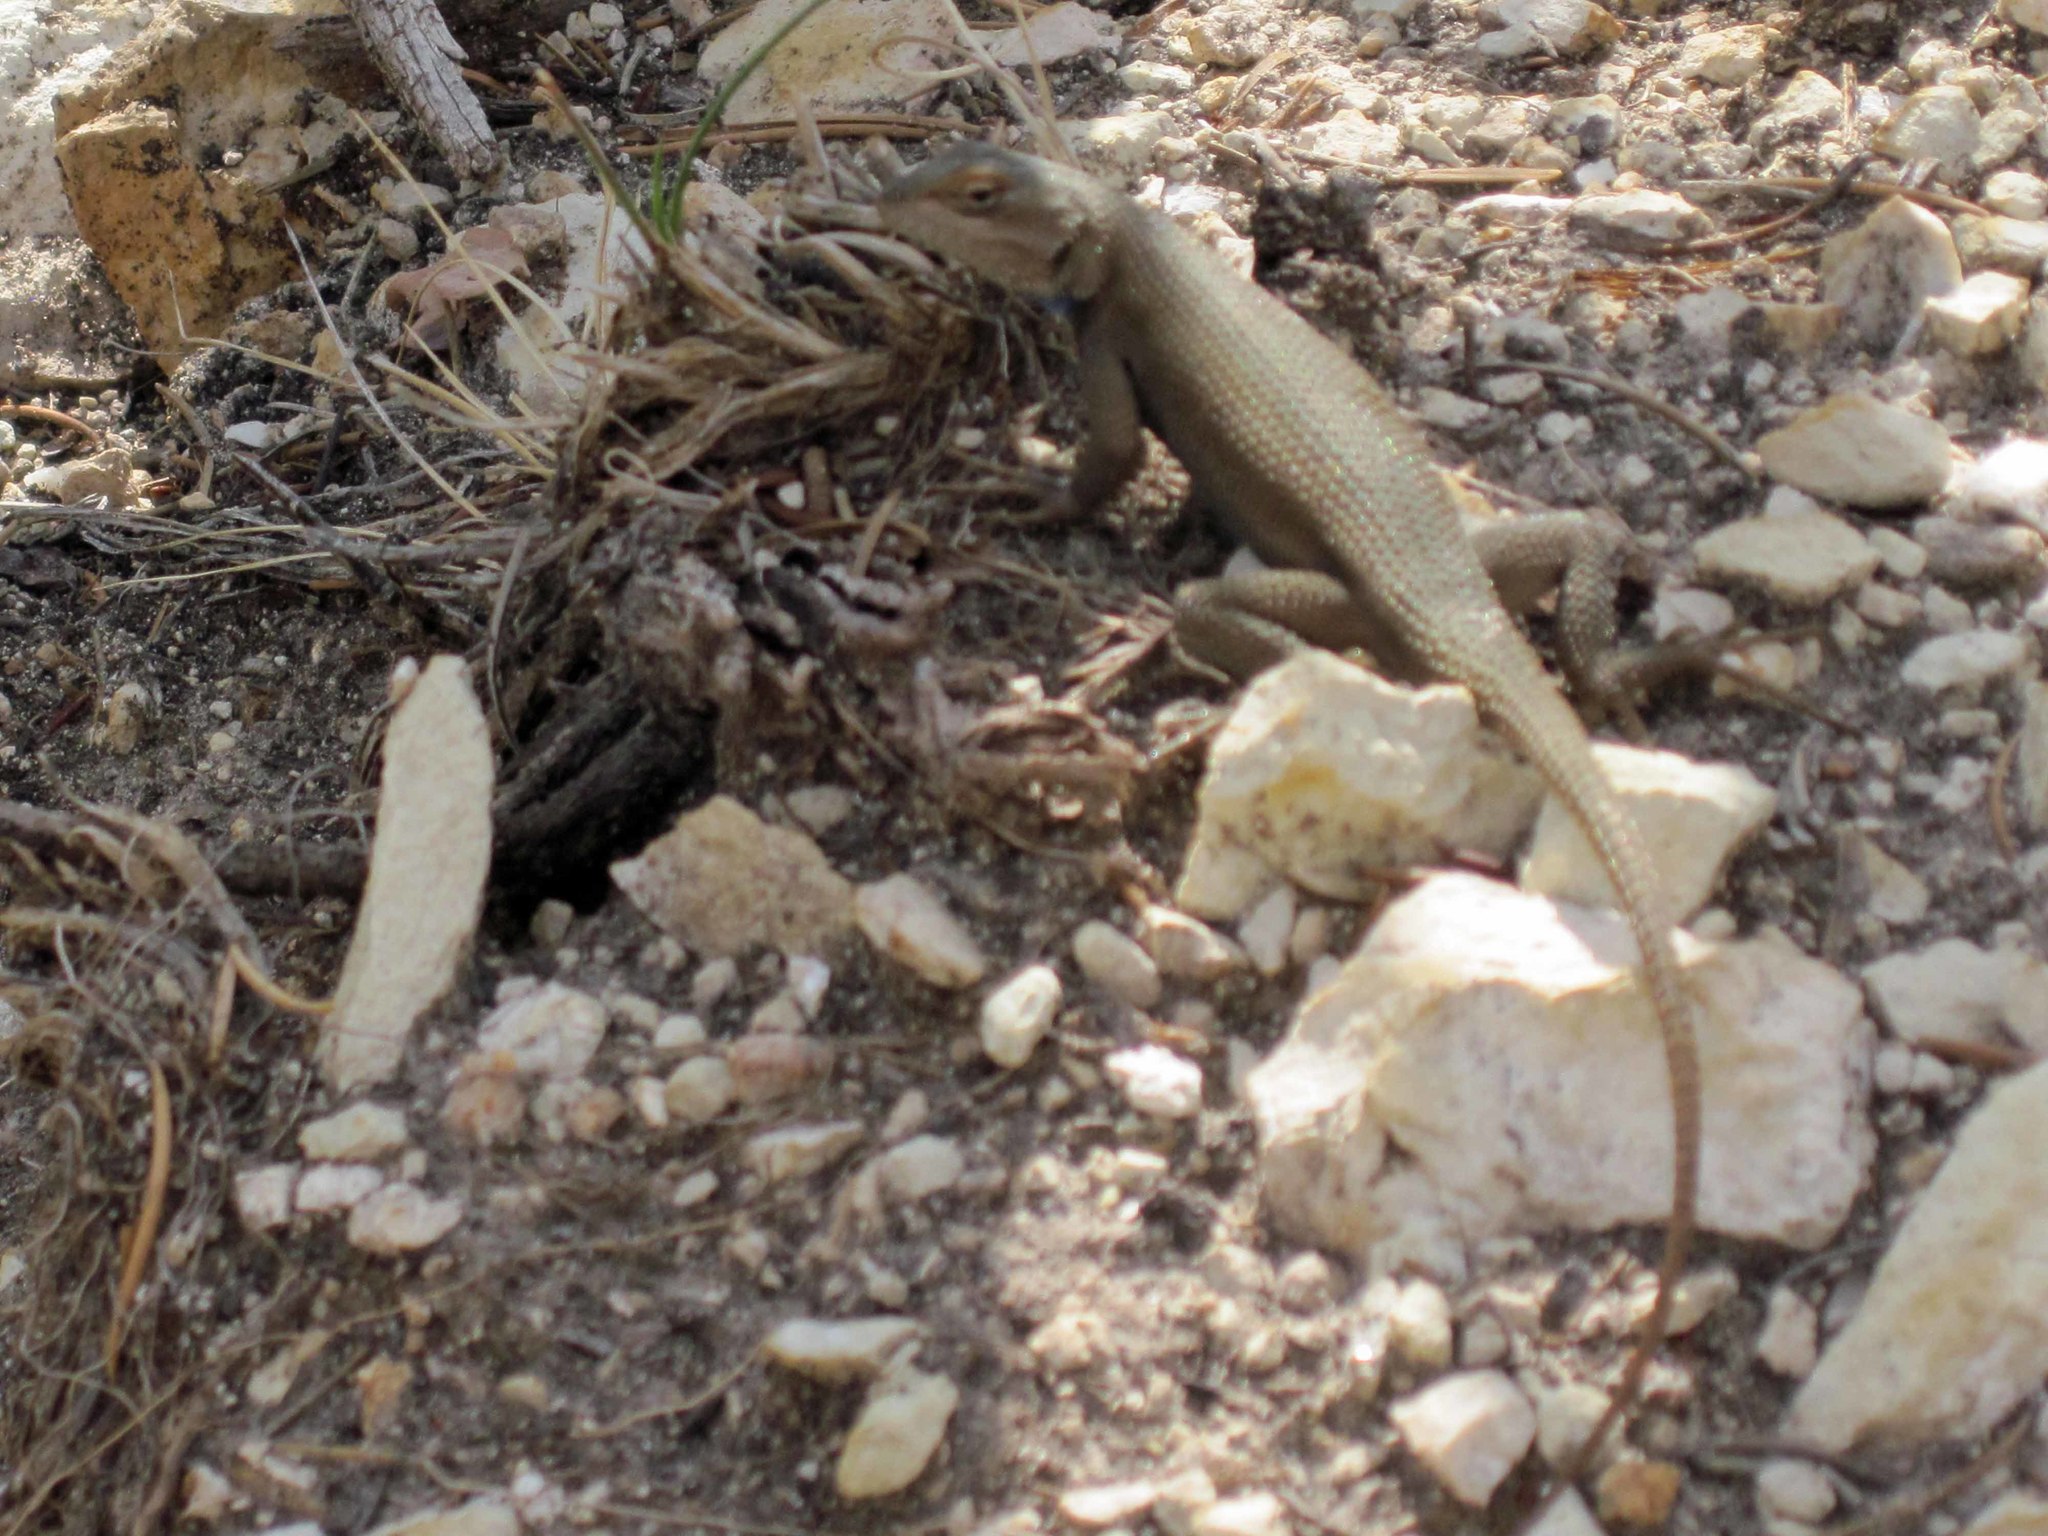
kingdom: Animalia
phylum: Chordata
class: Squamata
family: Phrynosomatidae
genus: Sceloporus
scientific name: Sceloporus tristichus
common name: Plateau fence lizard
